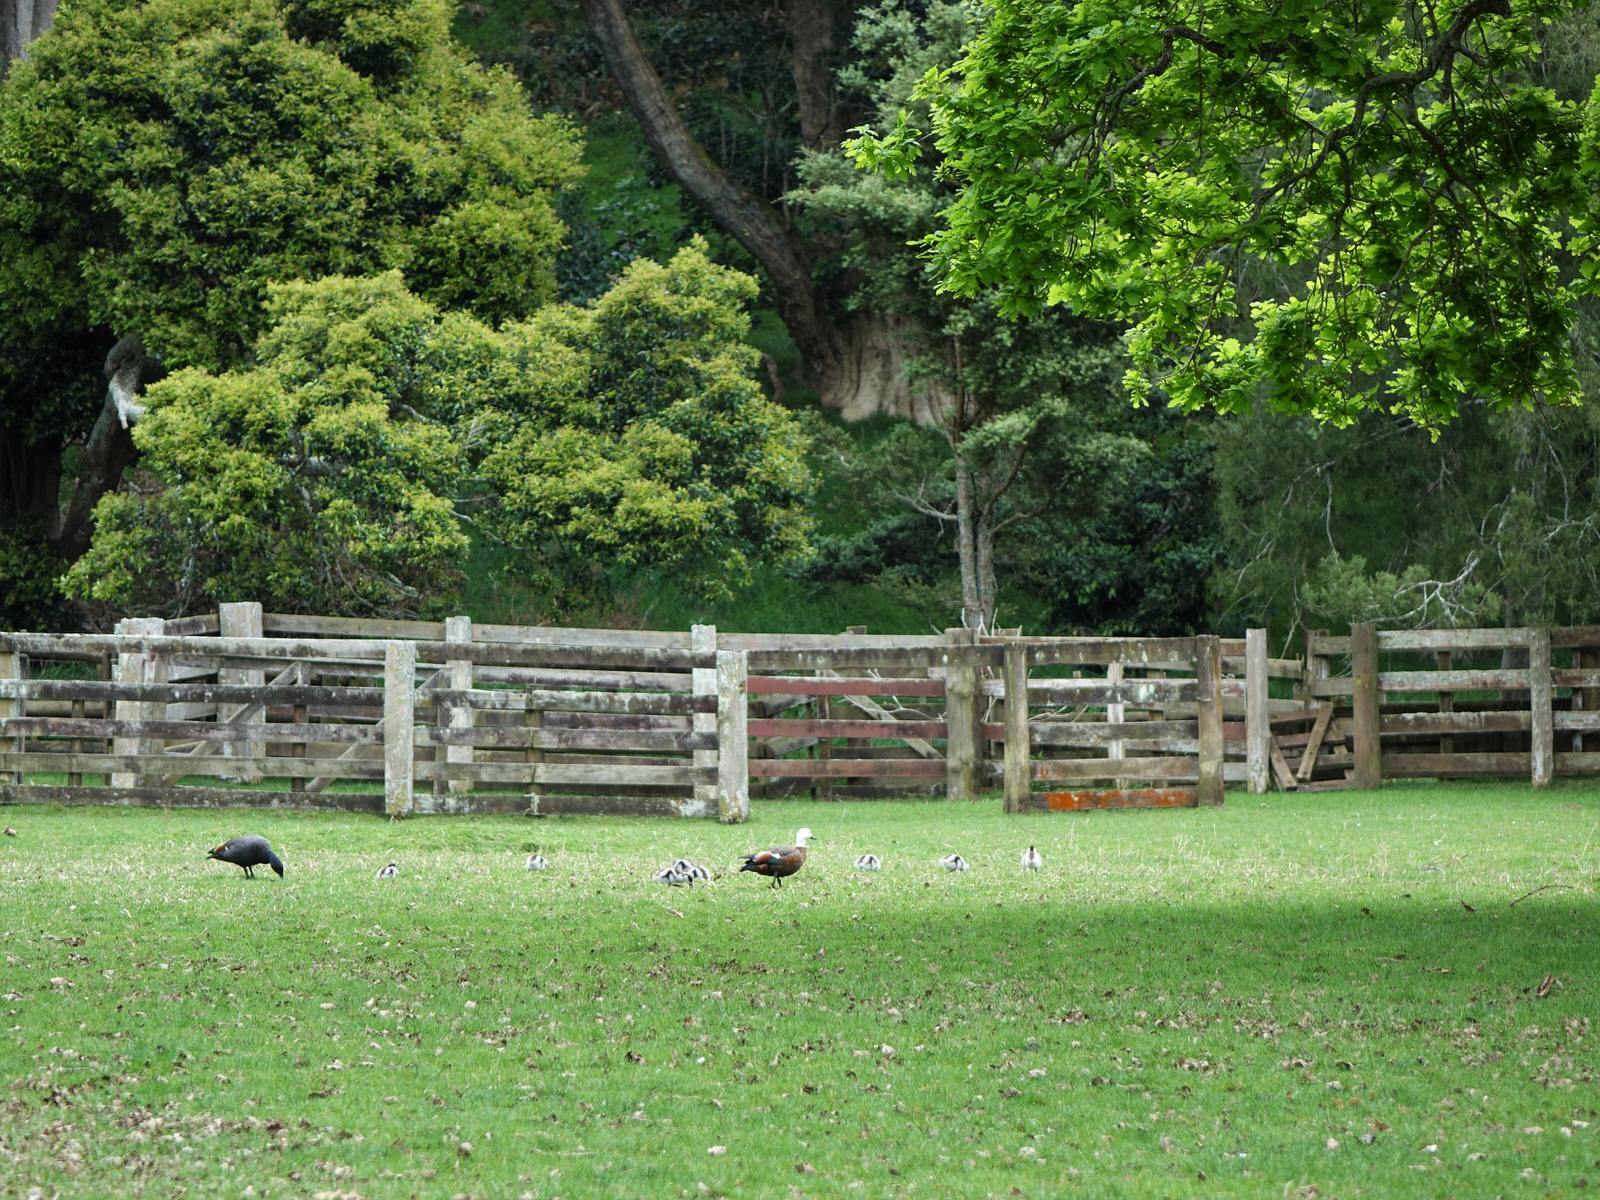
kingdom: Animalia
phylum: Chordata
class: Aves
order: Anseriformes
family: Anatidae
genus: Tadorna
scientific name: Tadorna variegata
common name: Paradise shelduck
